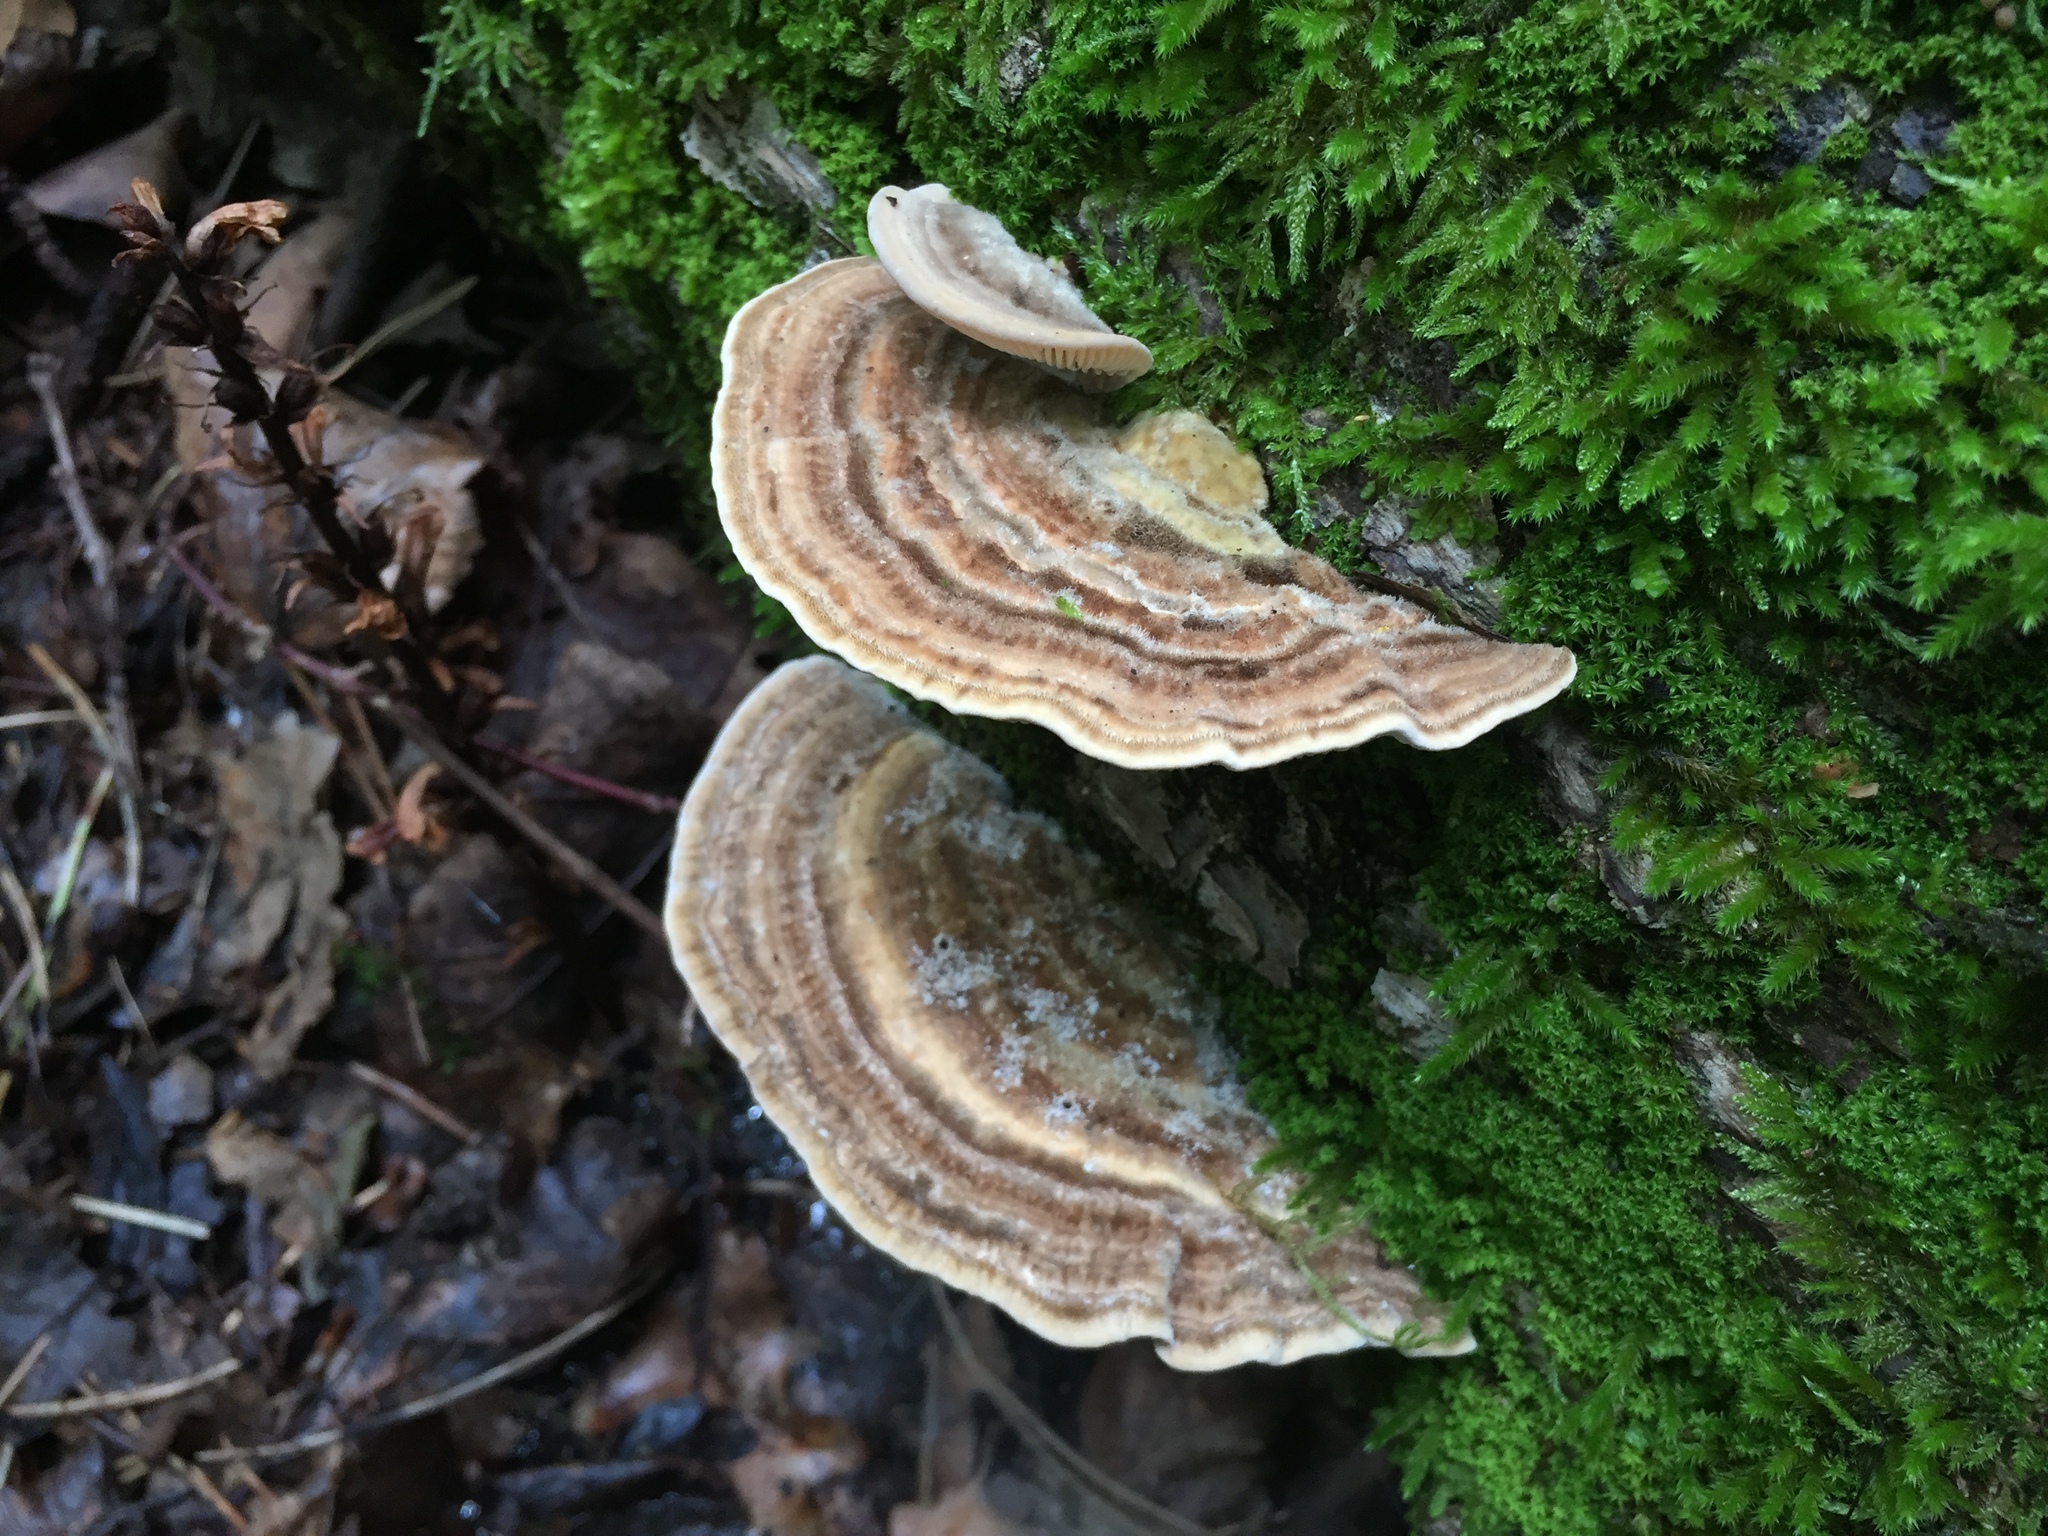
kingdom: Fungi
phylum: Basidiomycota
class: Agaricomycetes
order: Polyporales
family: Polyporaceae
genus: Lenzites
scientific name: Lenzites betulinus
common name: Birch mazegill
